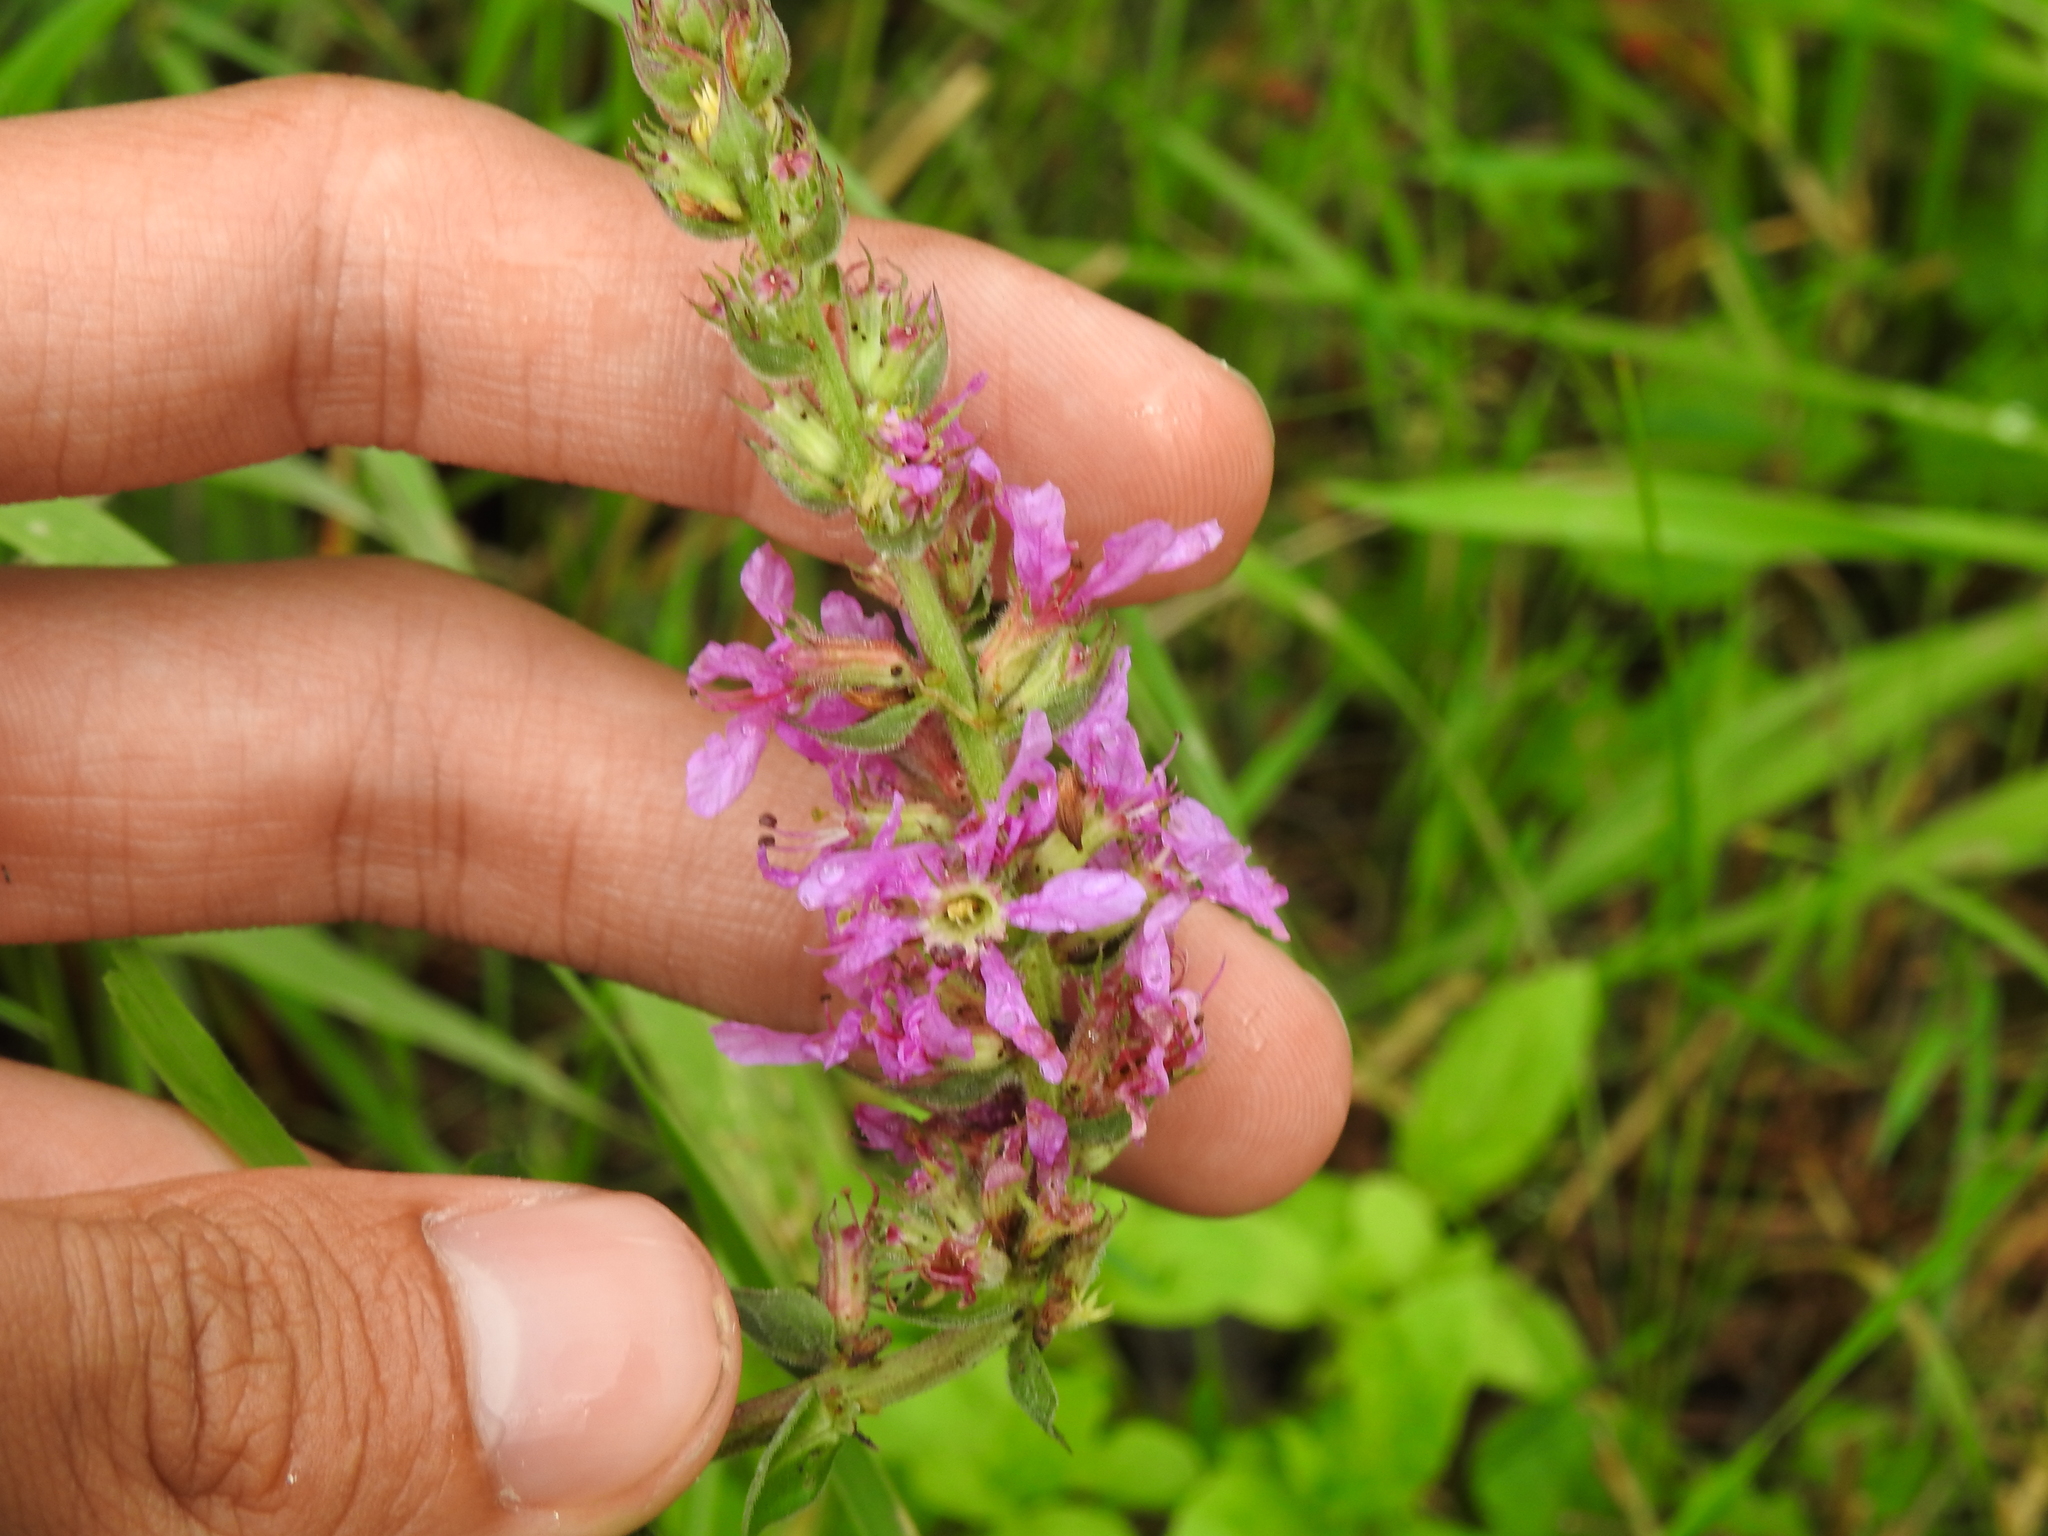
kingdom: Plantae
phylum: Tracheophyta
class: Magnoliopsida
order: Myrtales
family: Lythraceae
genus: Lythrum
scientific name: Lythrum salicaria
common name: Purple loosestrife
